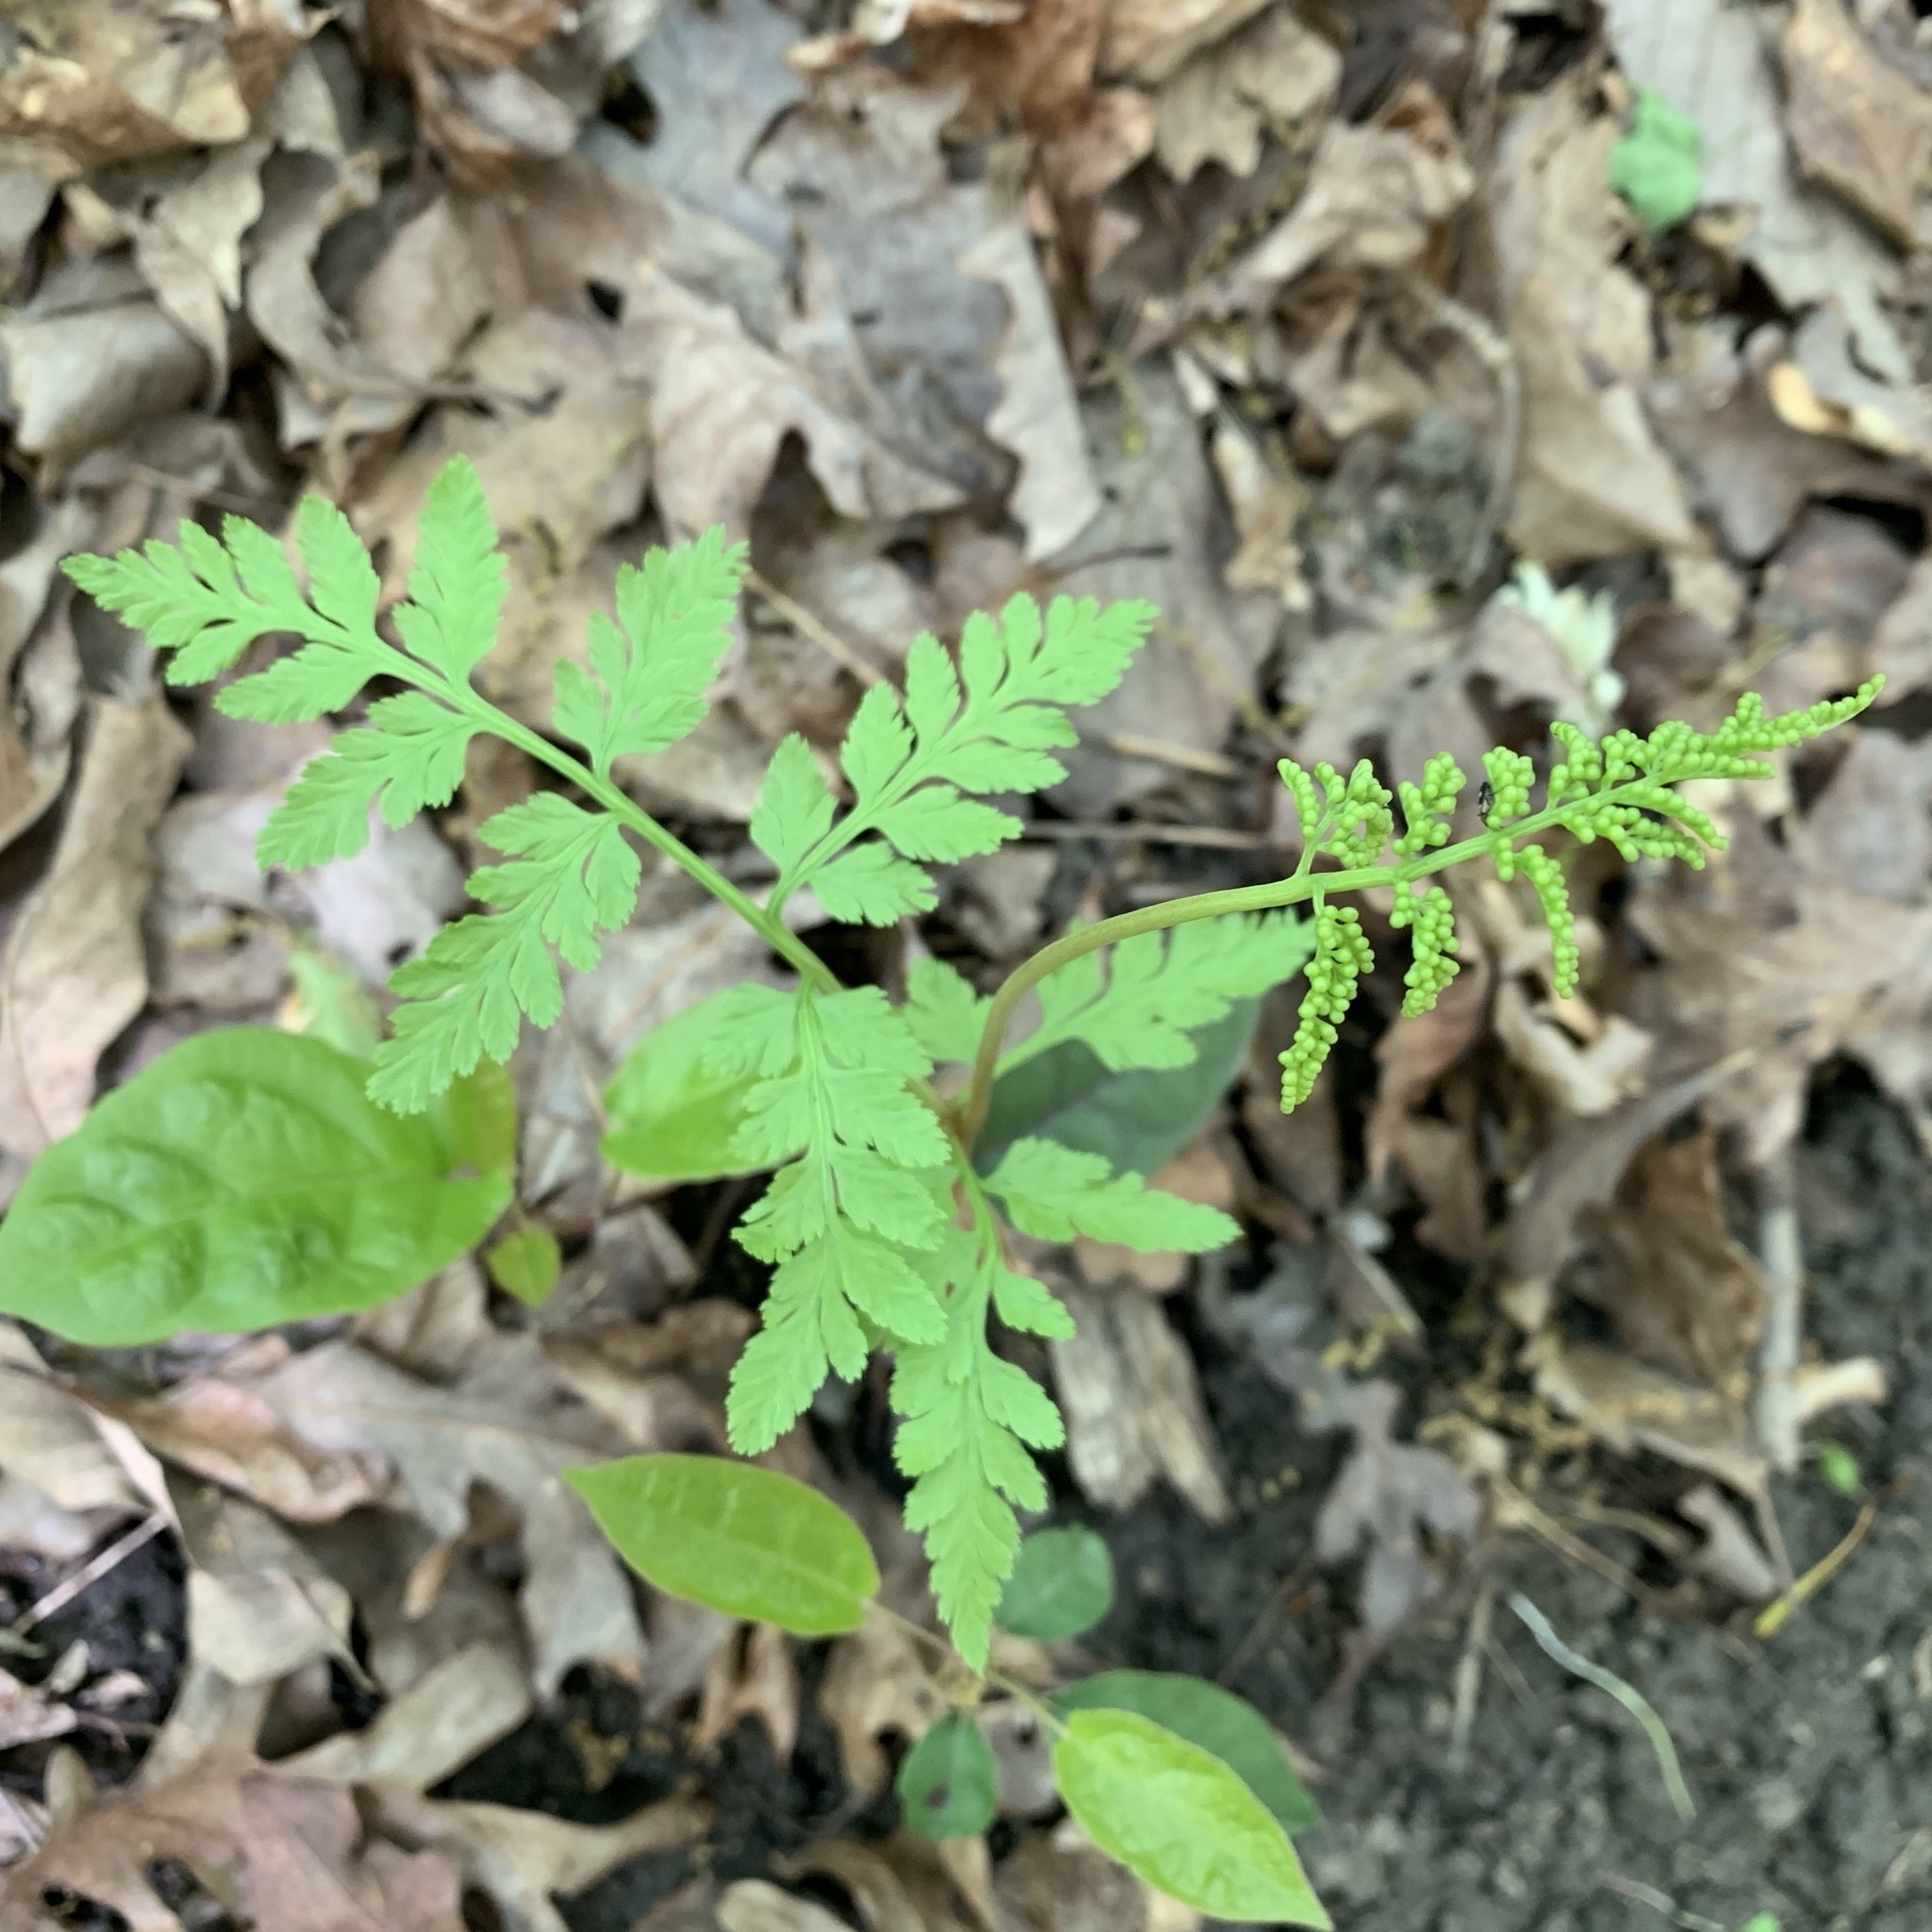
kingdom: Plantae
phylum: Tracheophyta
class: Polypodiopsida
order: Ophioglossales
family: Ophioglossaceae
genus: Botrypus
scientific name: Botrypus virginianus
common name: Common grapefern
